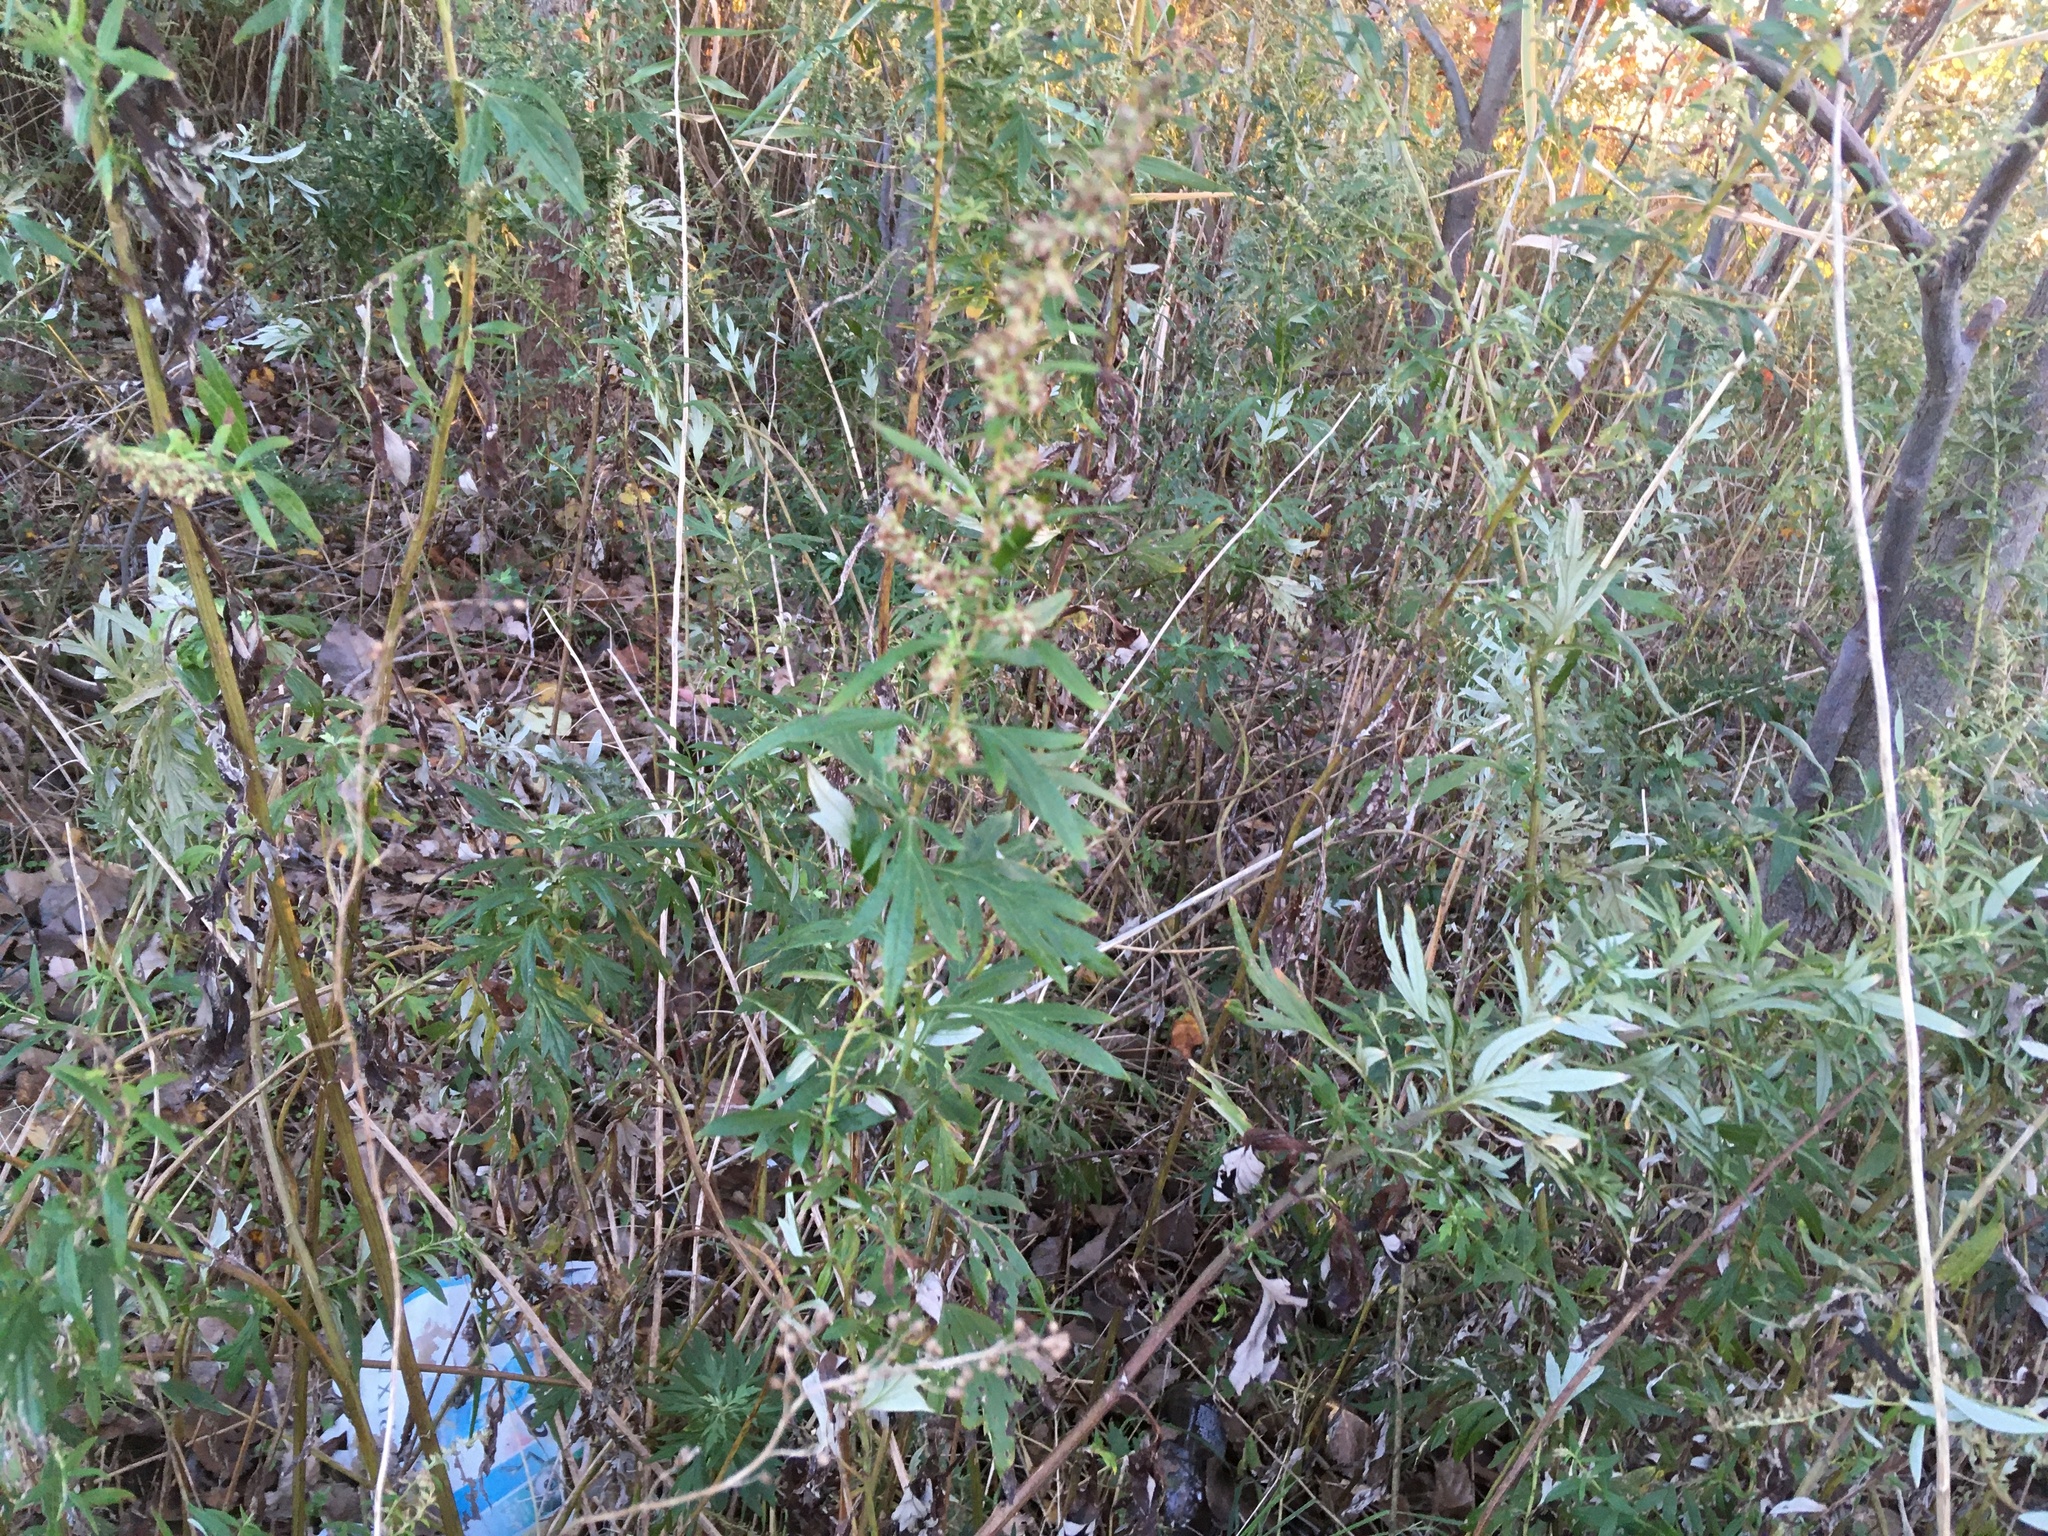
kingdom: Plantae
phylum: Tracheophyta
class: Magnoliopsida
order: Asterales
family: Asteraceae
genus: Artemisia
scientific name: Artemisia vulgaris
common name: Mugwort
